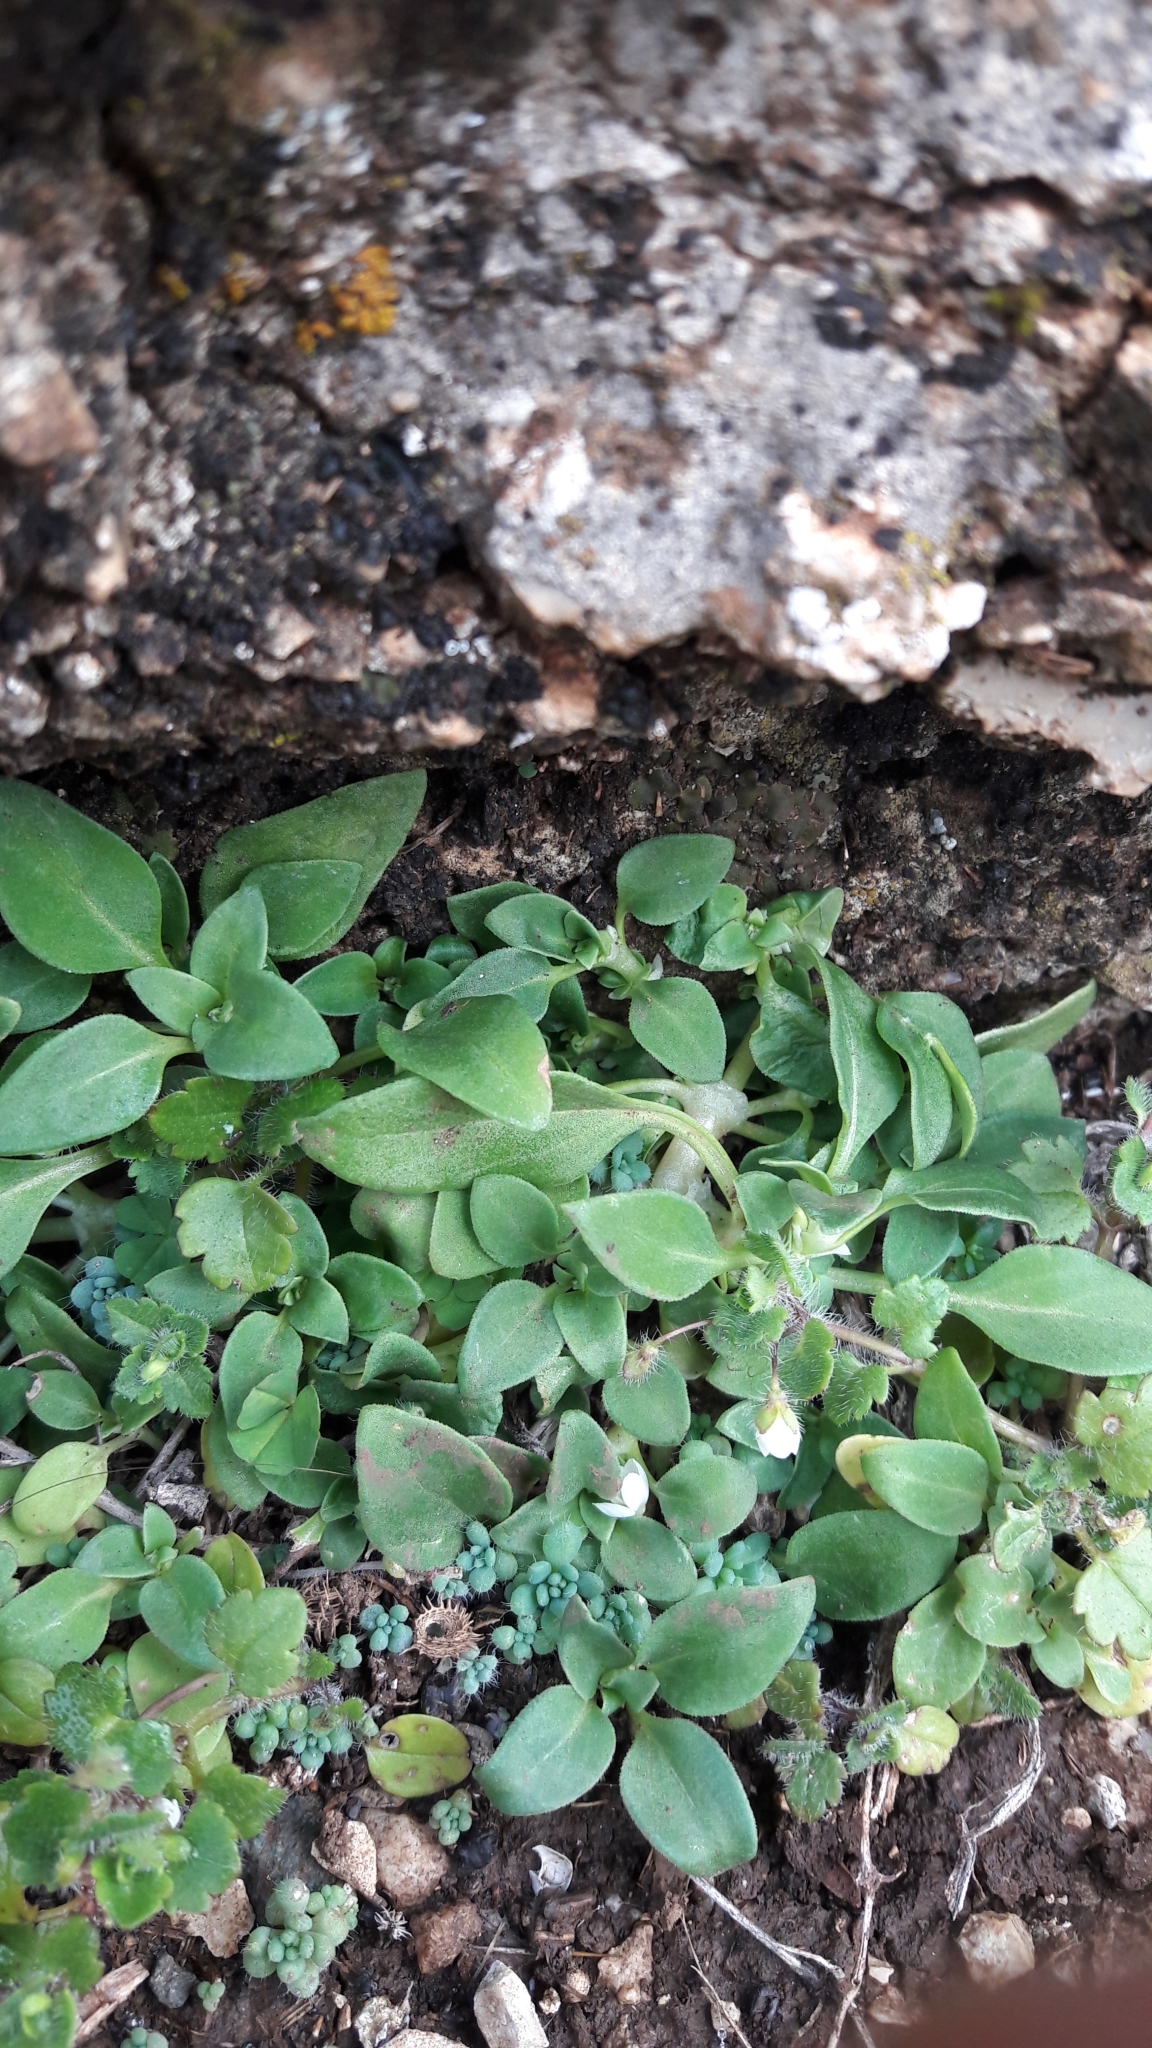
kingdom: Plantae
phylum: Tracheophyta
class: Magnoliopsida
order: Gentianales
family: Rubiaceae
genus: Theligonum
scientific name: Theligonum cynocrambe
